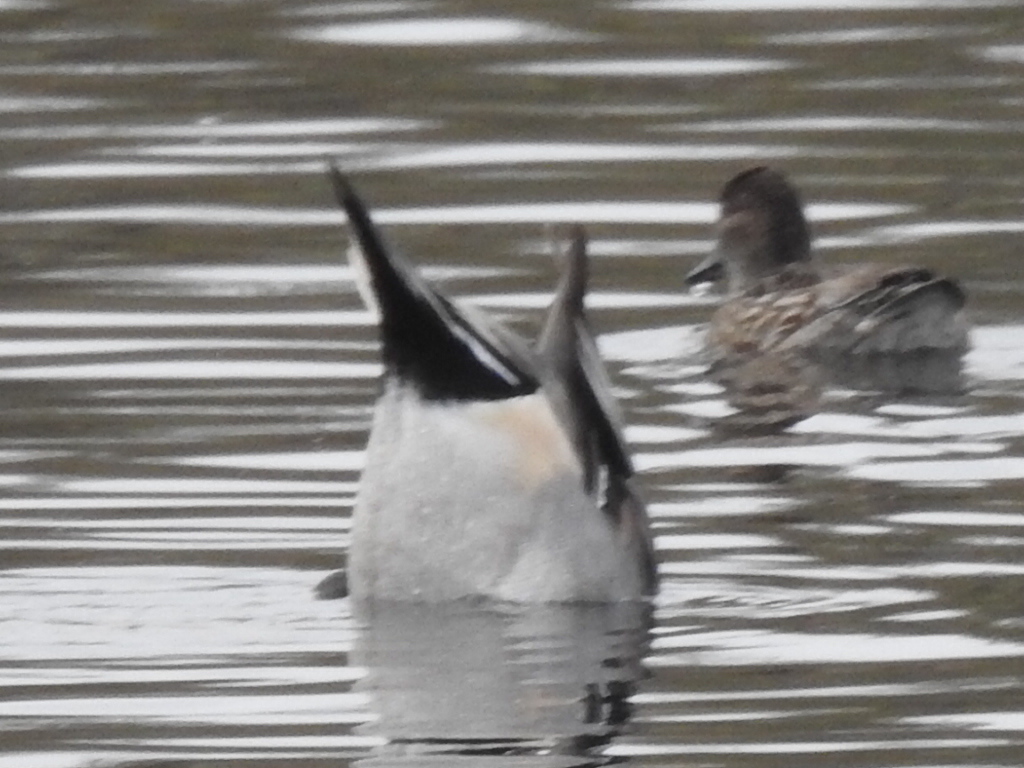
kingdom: Animalia
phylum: Chordata
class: Aves
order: Anseriformes
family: Anatidae
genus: Anas
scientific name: Anas acuta
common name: Northern pintail
